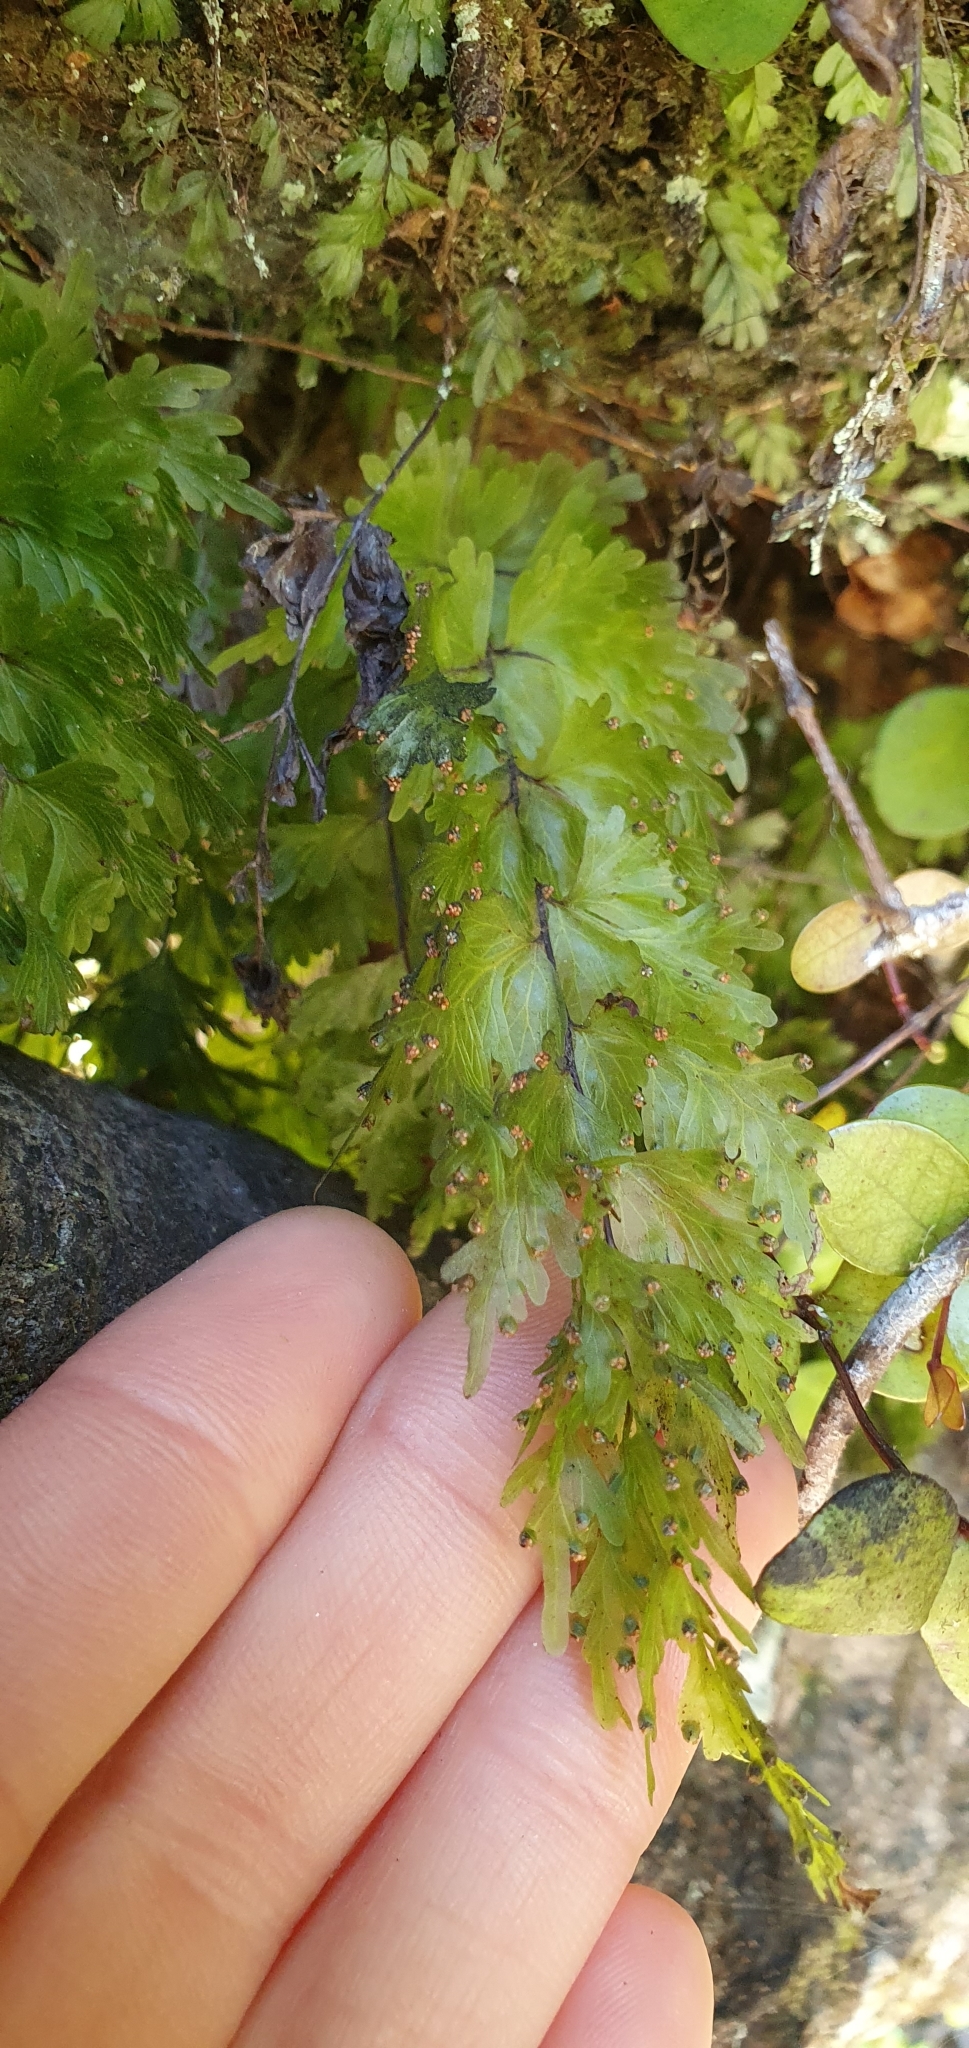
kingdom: Plantae
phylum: Tracheophyta
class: Polypodiopsida
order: Hymenophyllales
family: Hymenophyllaceae
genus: Hymenophyllum
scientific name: Hymenophyllum flabellatum
